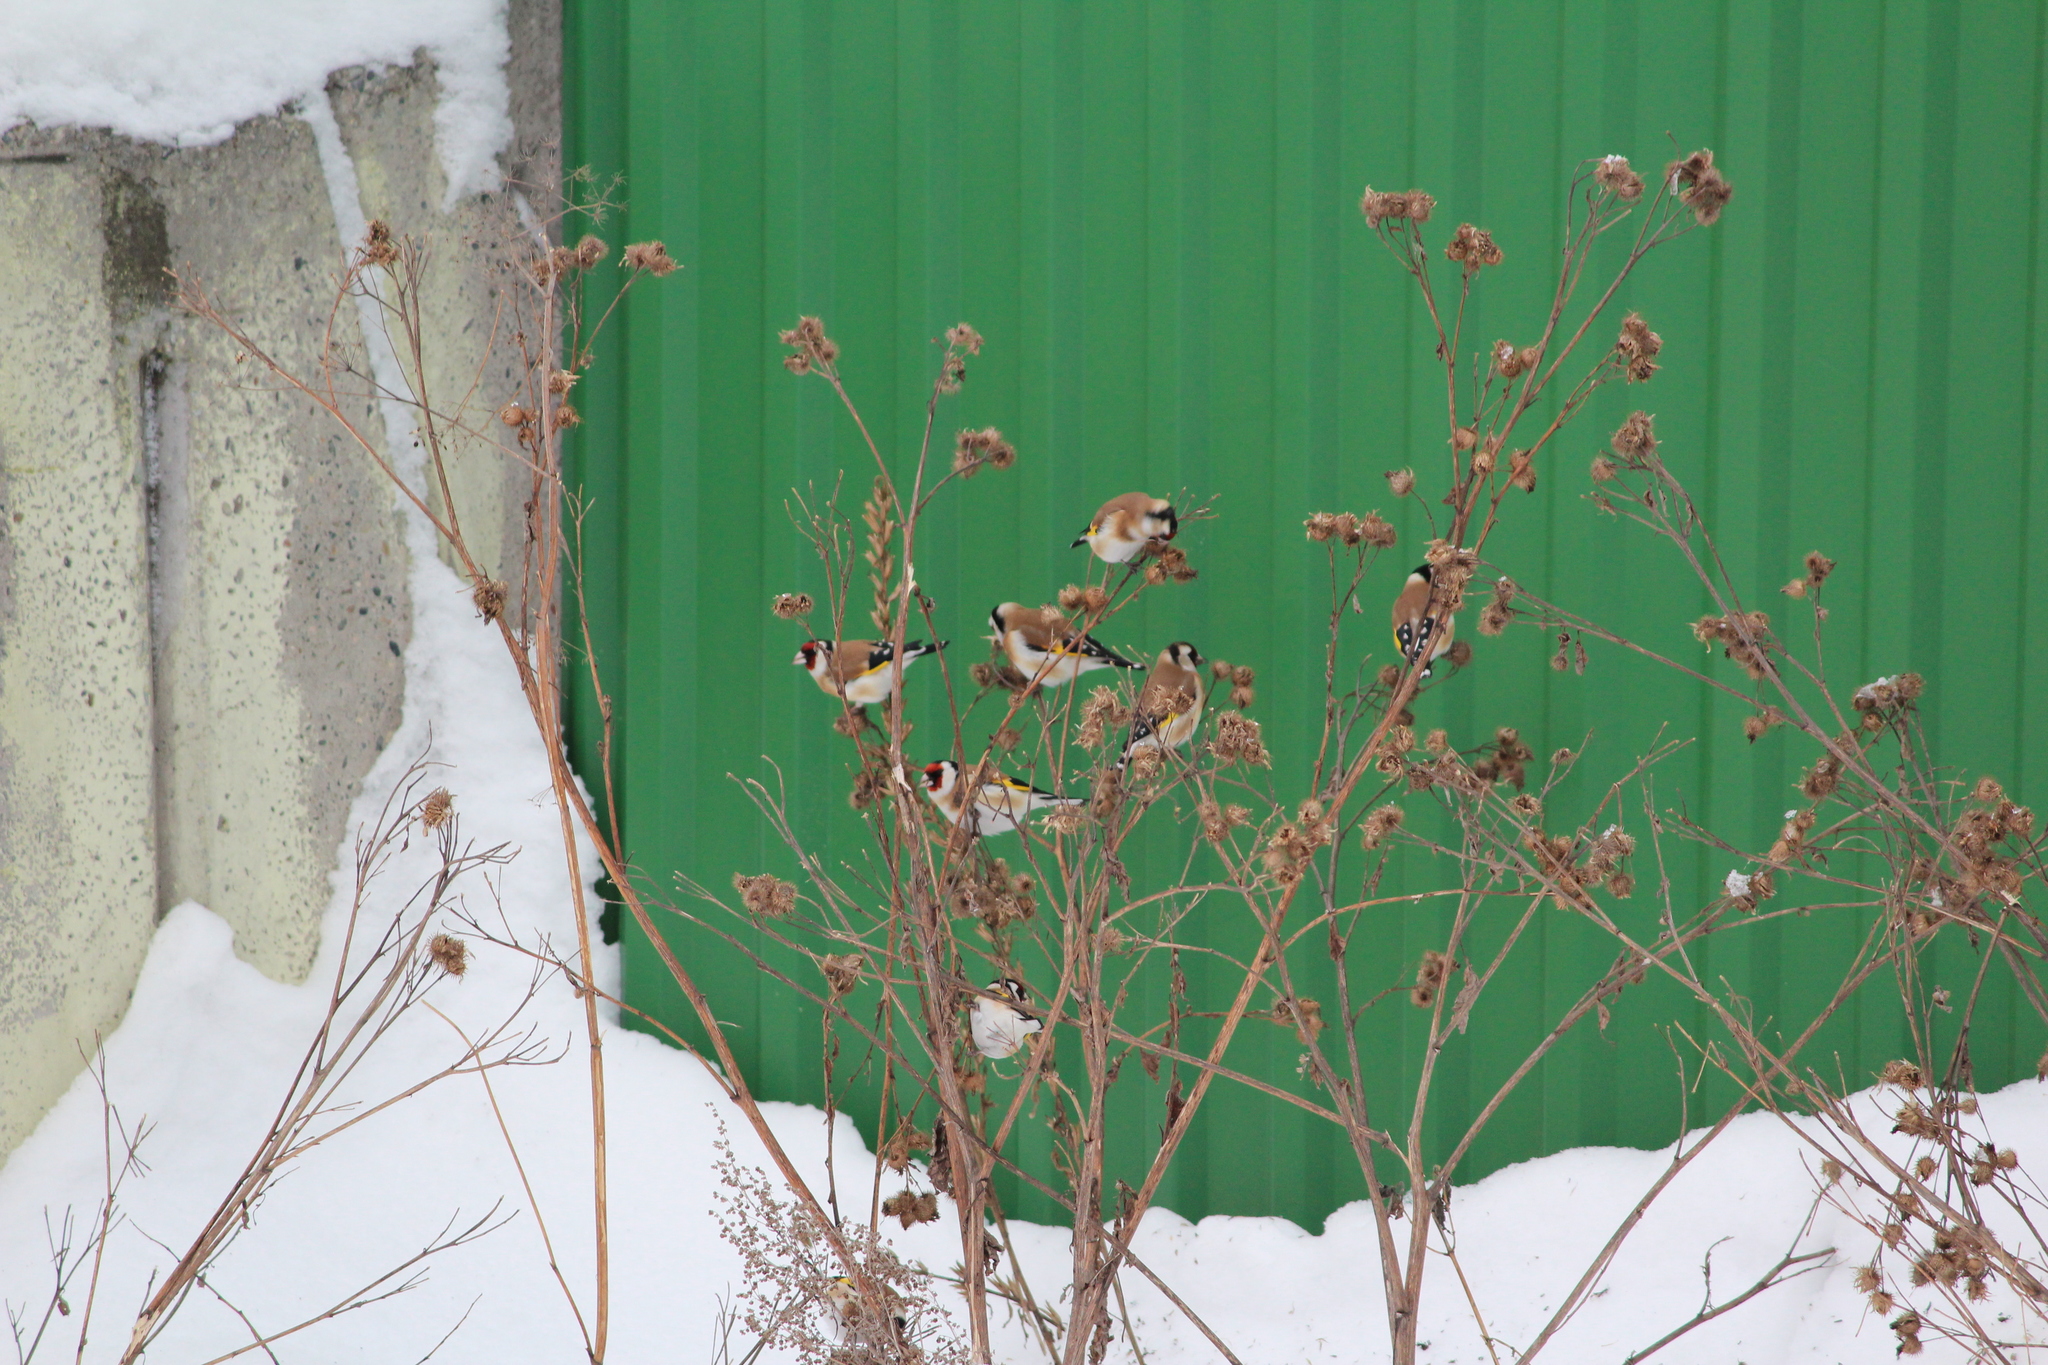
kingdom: Animalia
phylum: Chordata
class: Aves
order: Passeriformes
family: Fringillidae
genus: Carduelis
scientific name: Carduelis carduelis
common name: European goldfinch
